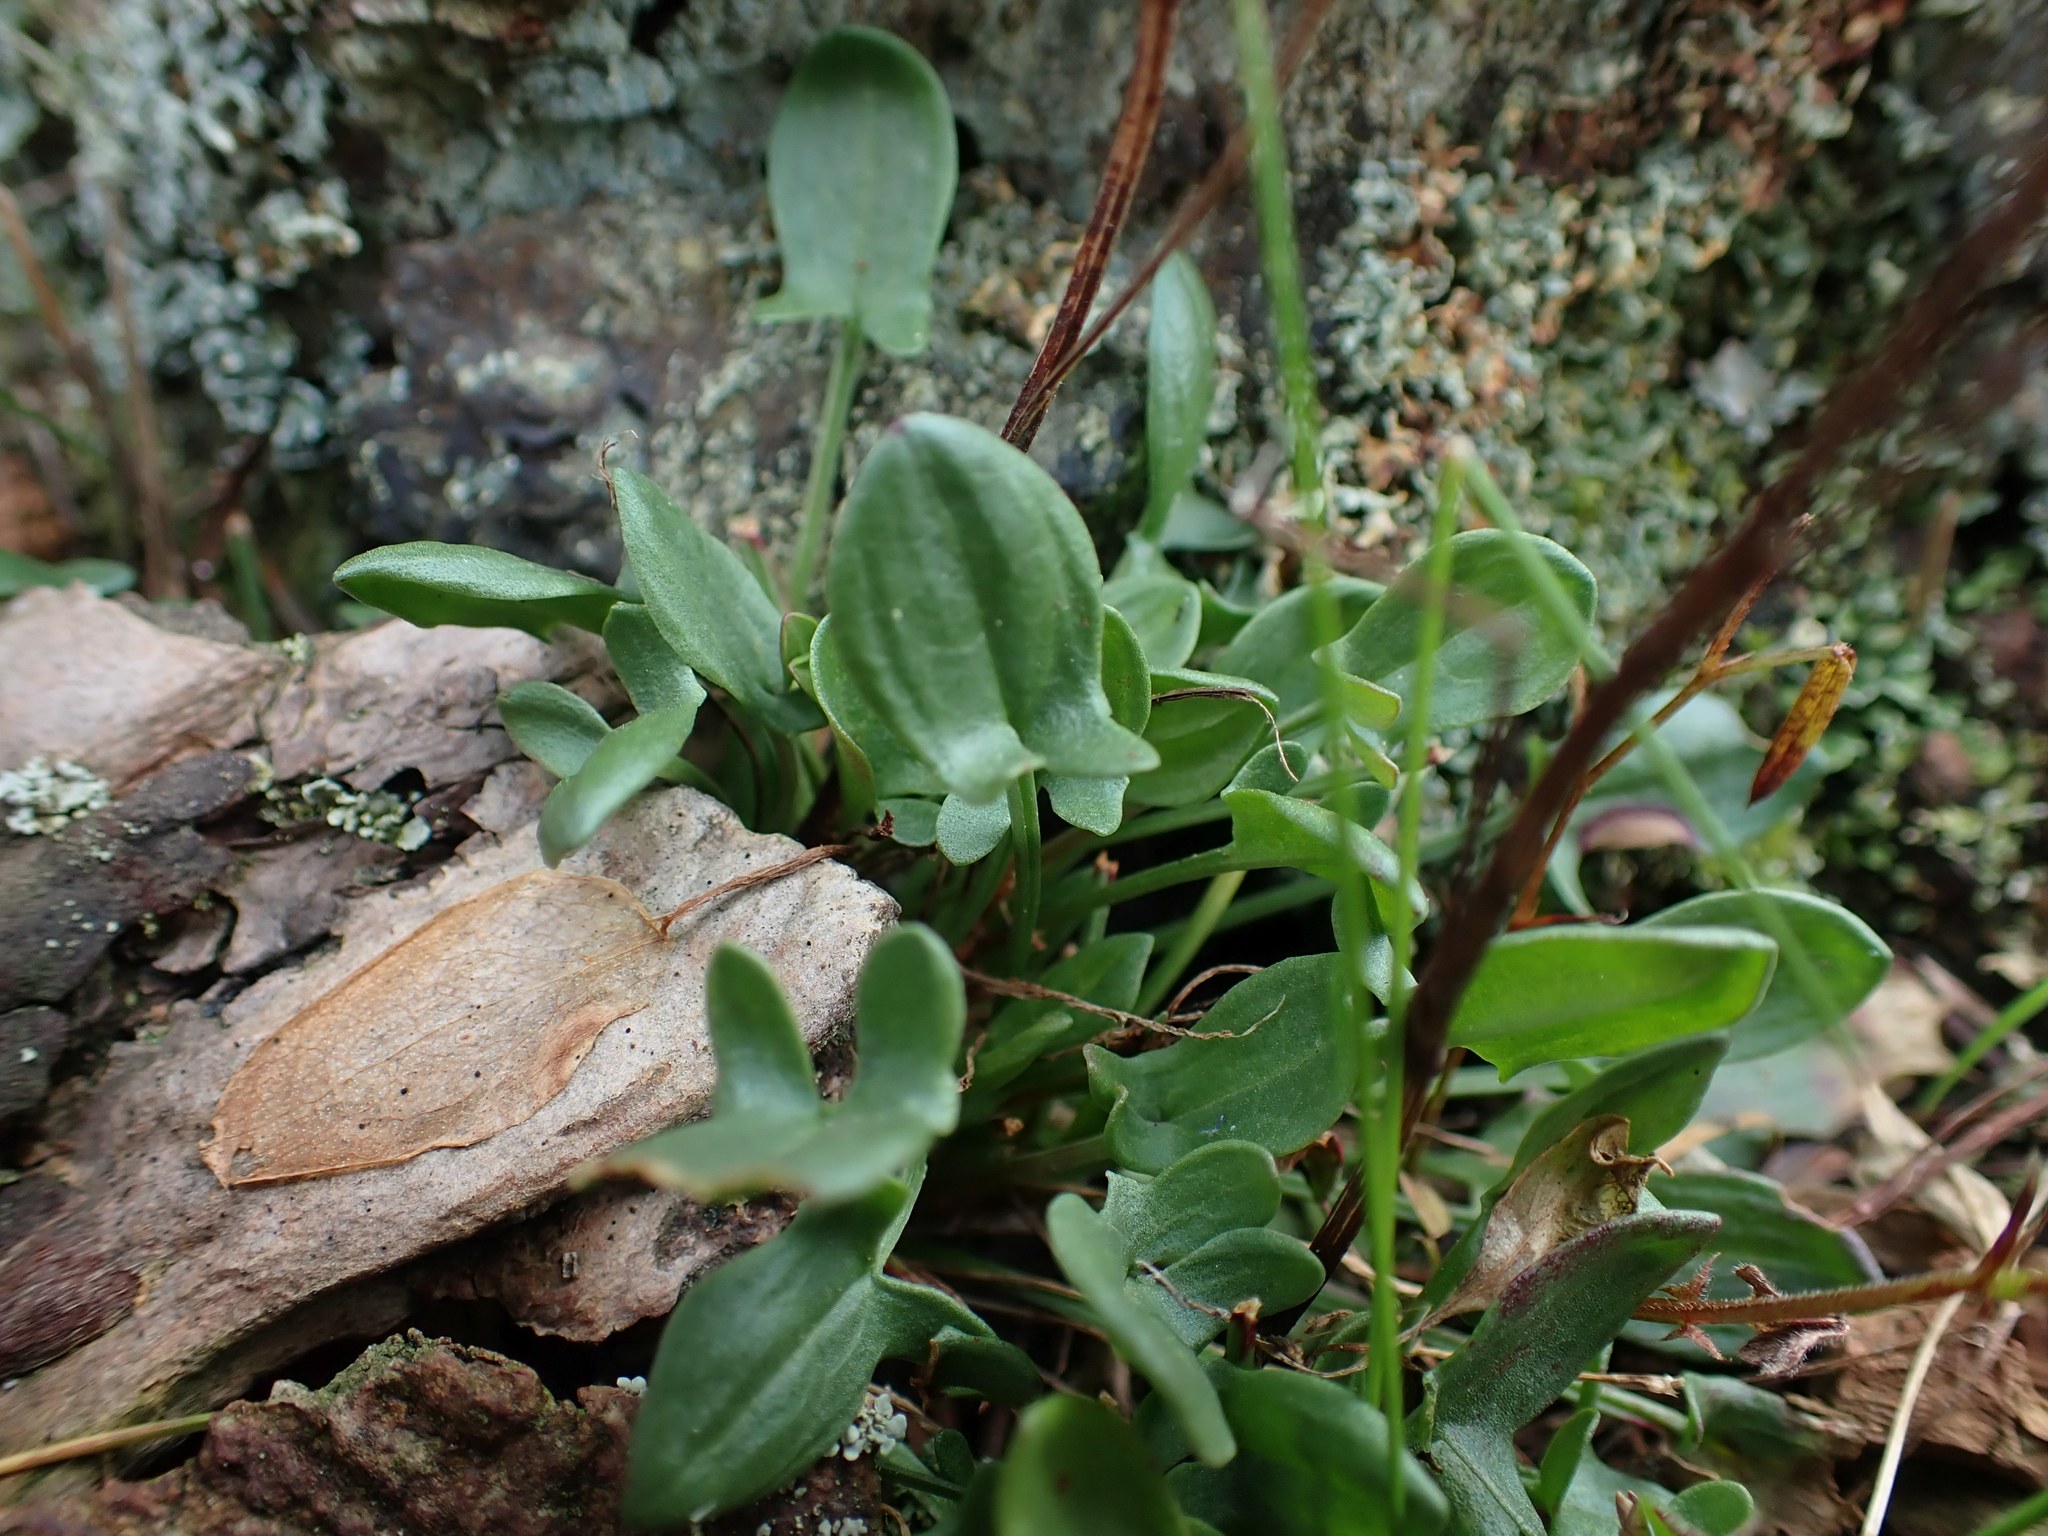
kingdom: Plantae
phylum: Tracheophyta
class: Magnoliopsida
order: Caryophyllales
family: Polygonaceae
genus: Rumex
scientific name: Rumex acetosella
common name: Common sheep sorrel
